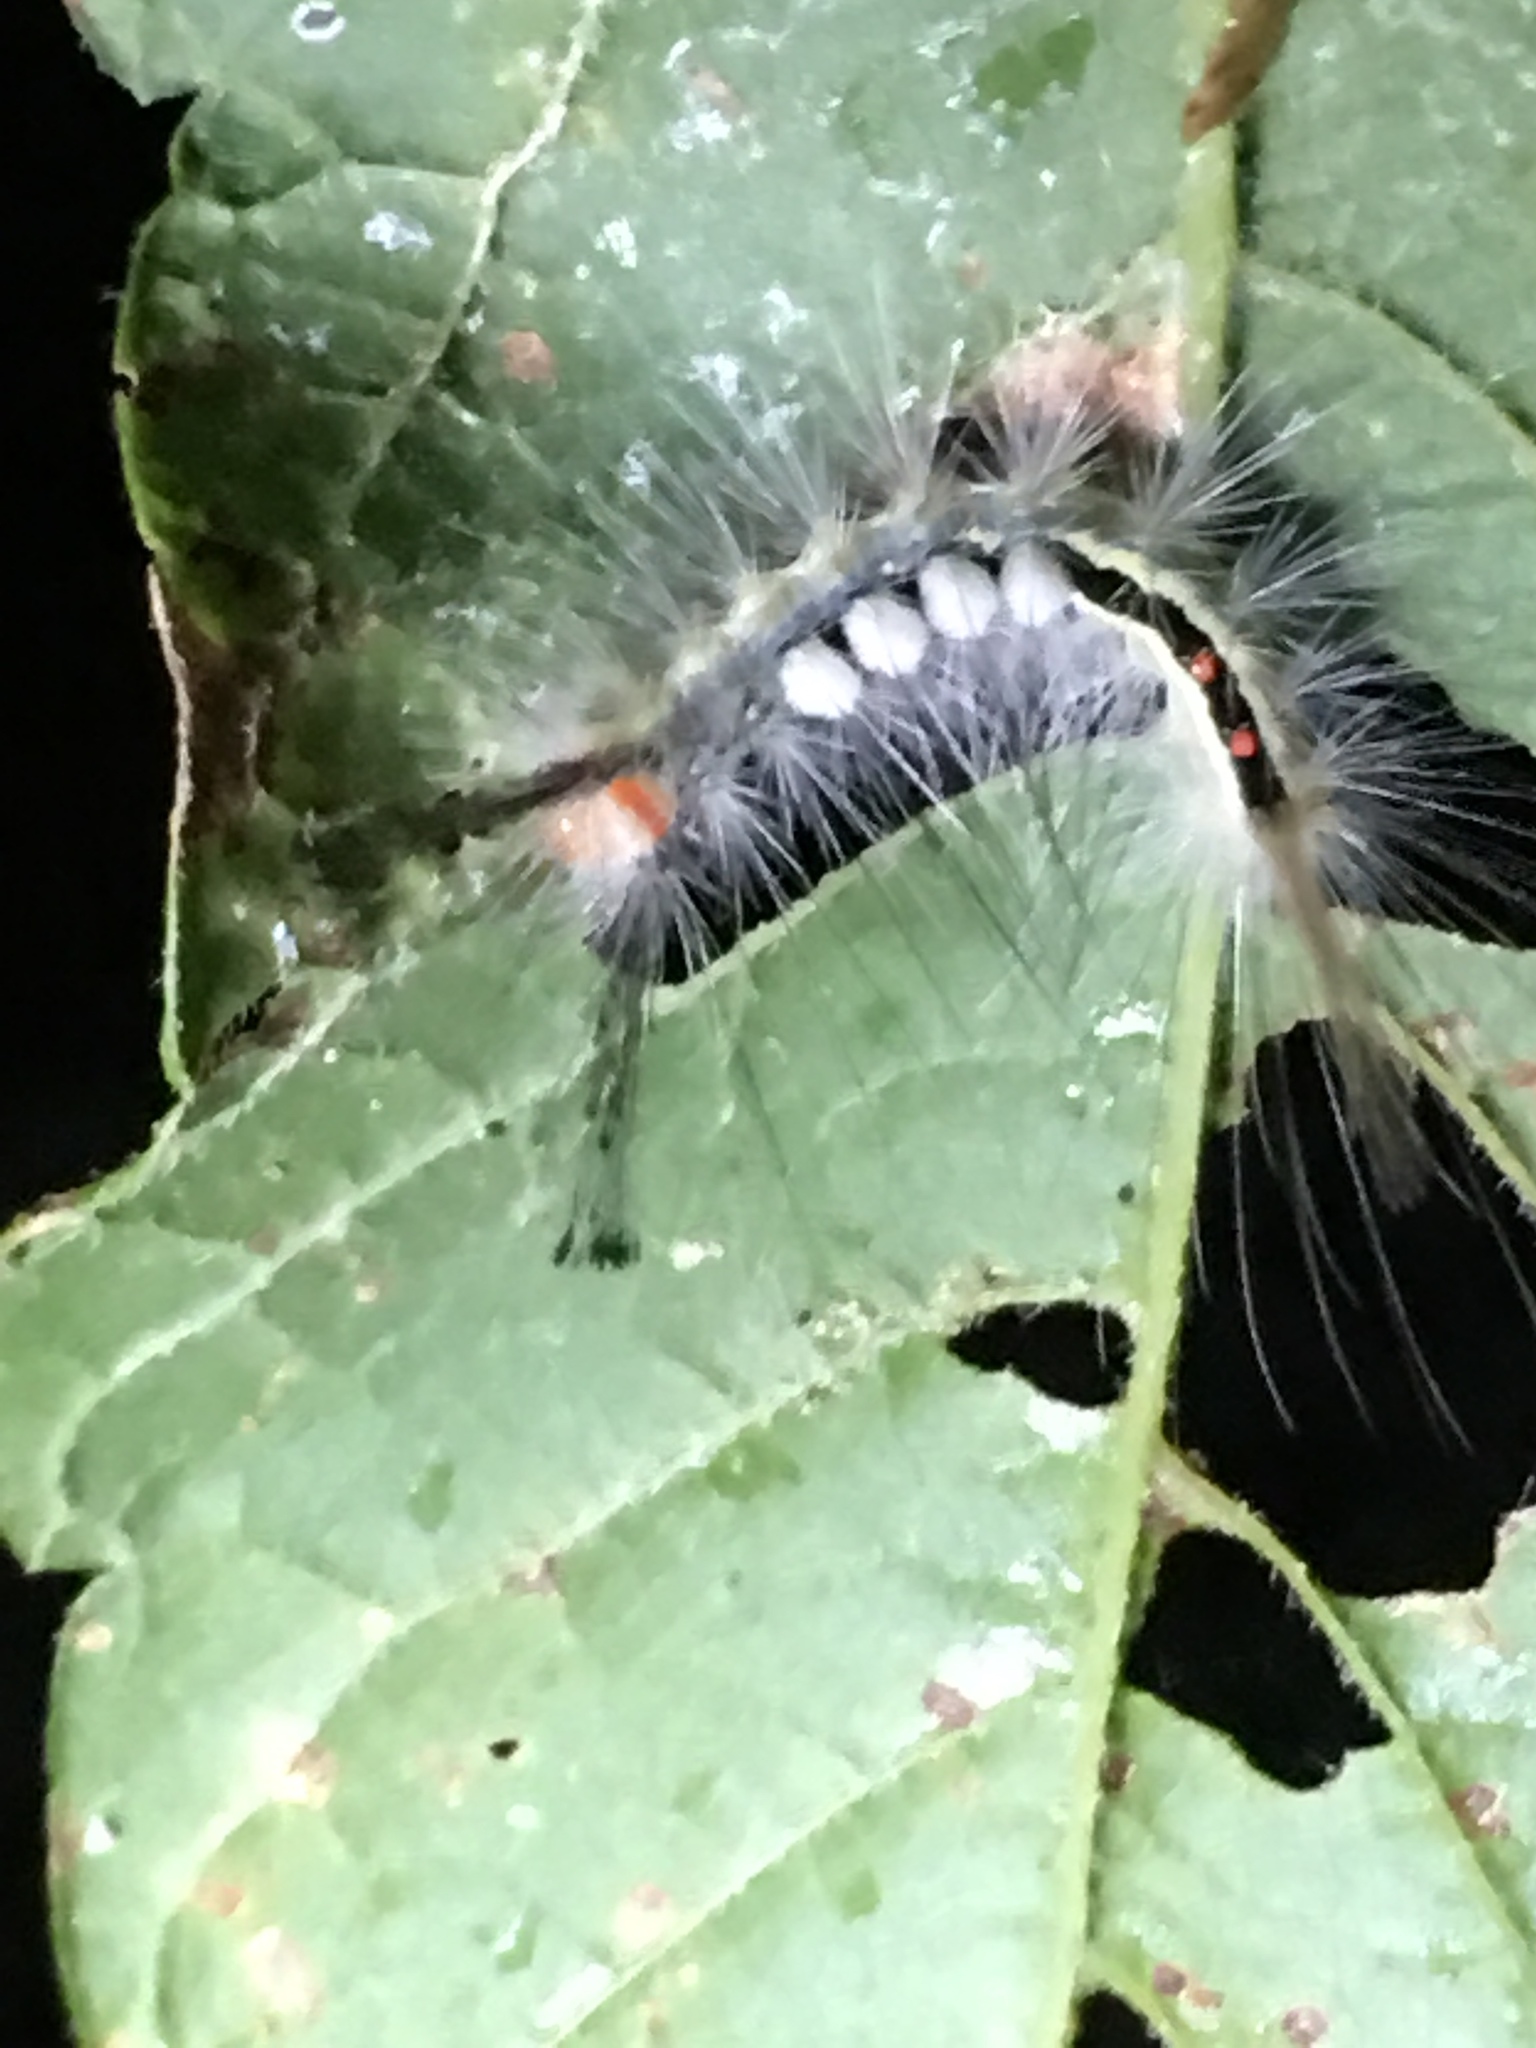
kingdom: Animalia
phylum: Arthropoda
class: Insecta
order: Lepidoptera
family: Erebidae
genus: Orgyia
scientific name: Orgyia leucostigma
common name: White-marked tussock moth
